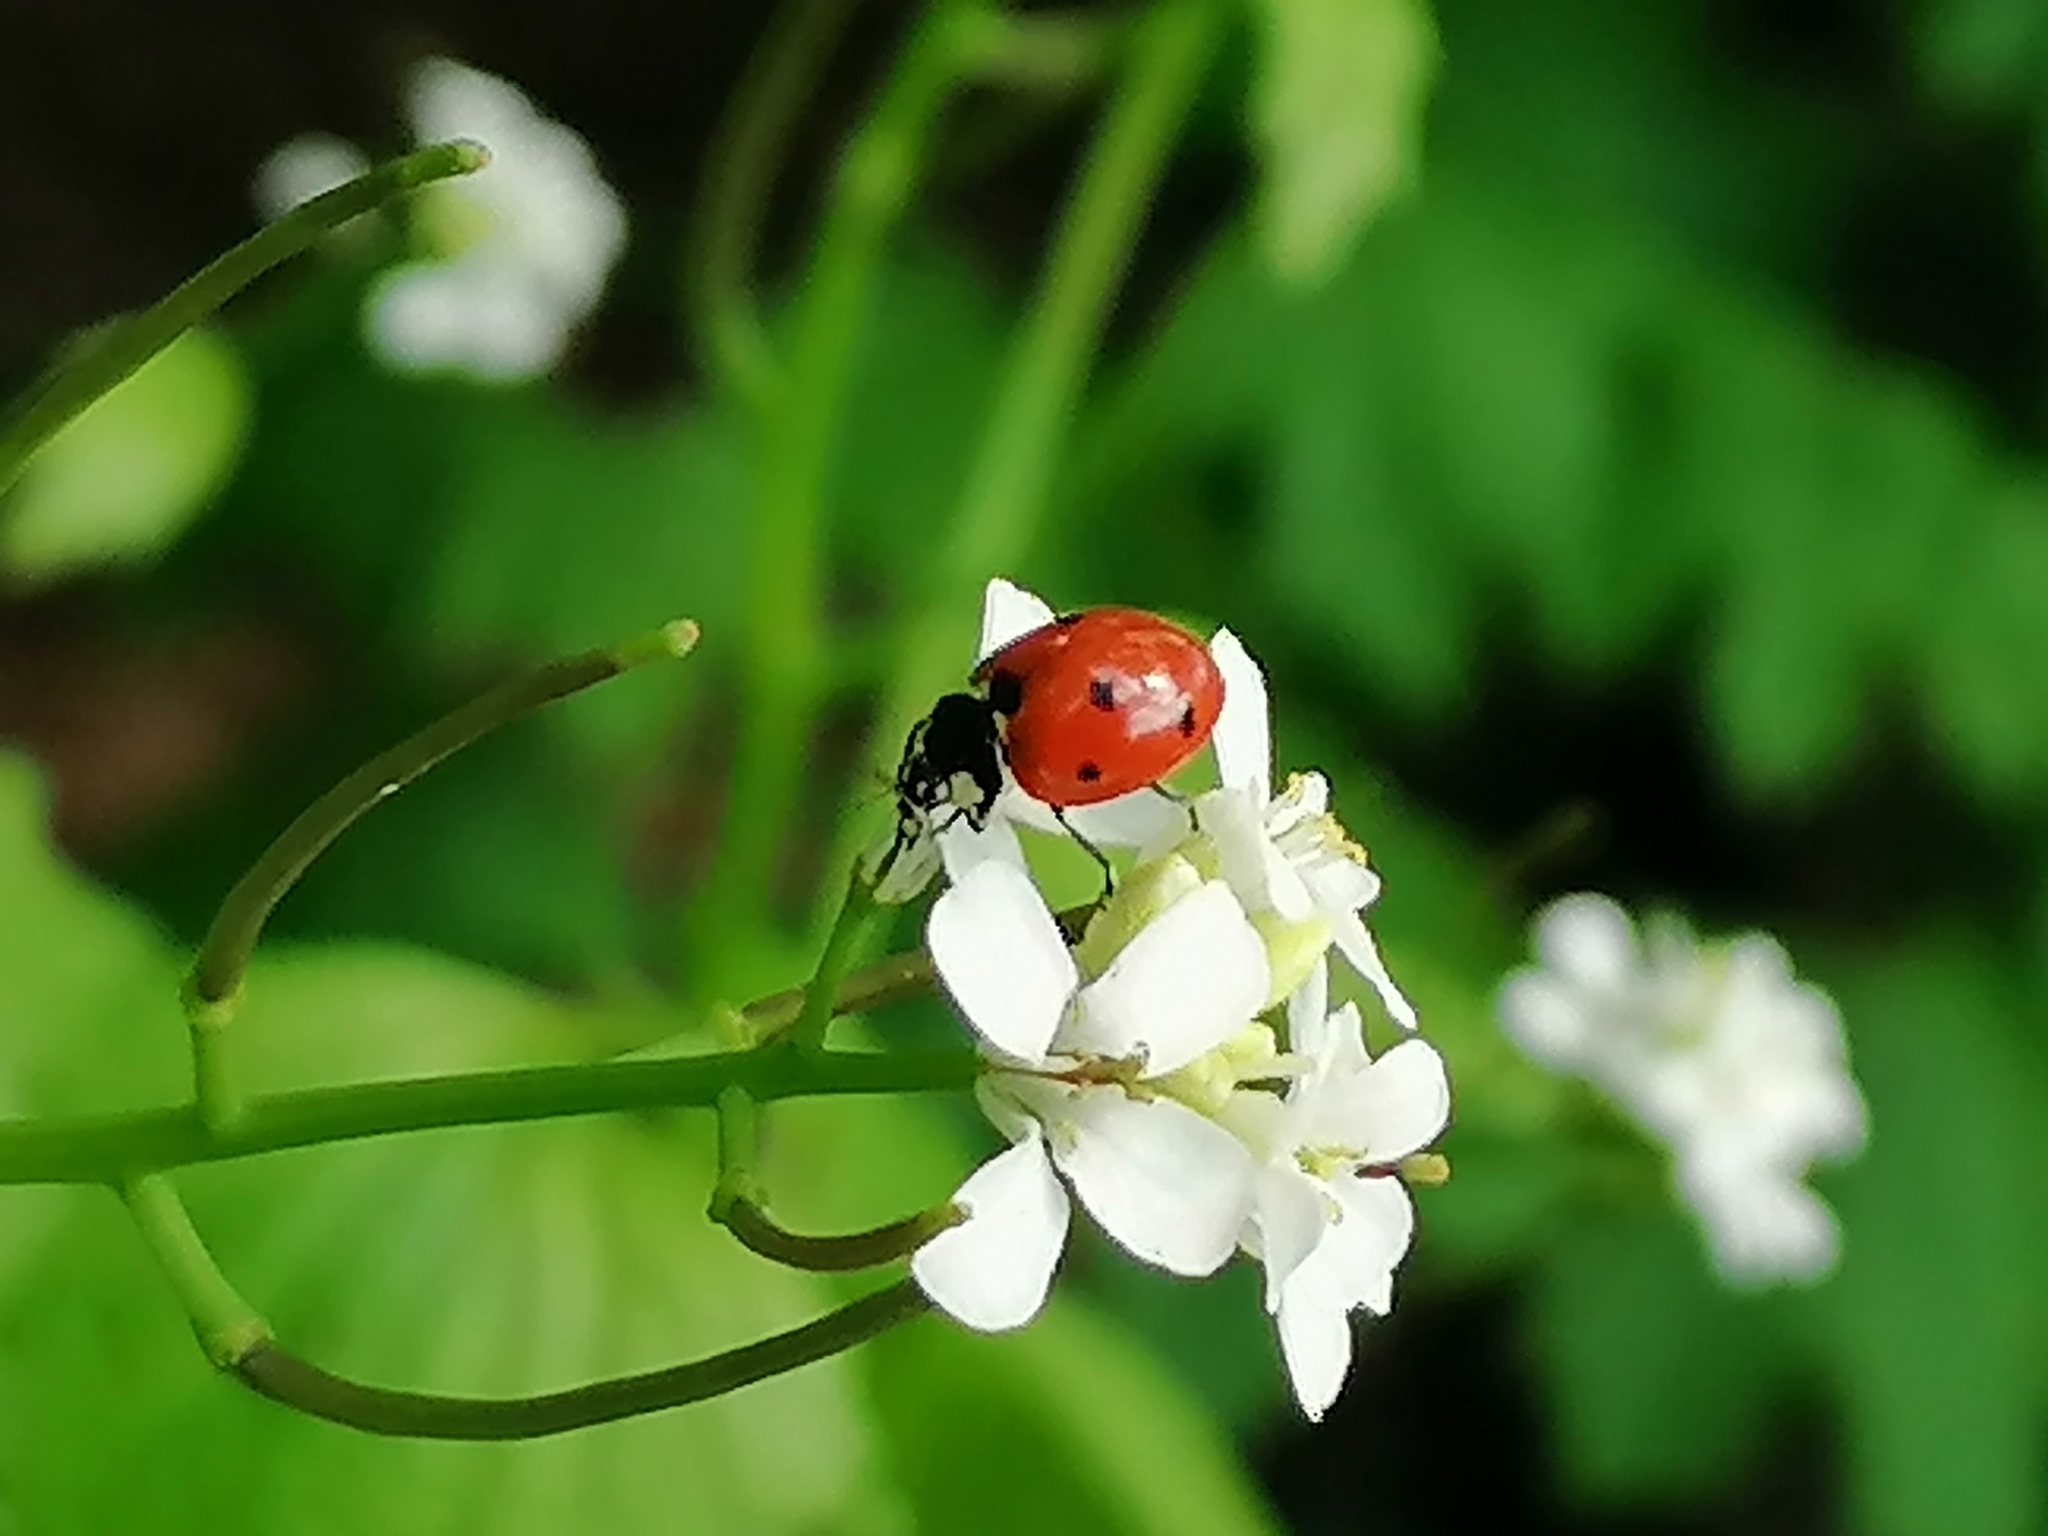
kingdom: Animalia
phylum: Arthropoda
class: Insecta
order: Coleoptera
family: Coccinellidae
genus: Coccinella
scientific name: Coccinella septempunctata
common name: Sevenspotted lady beetle
